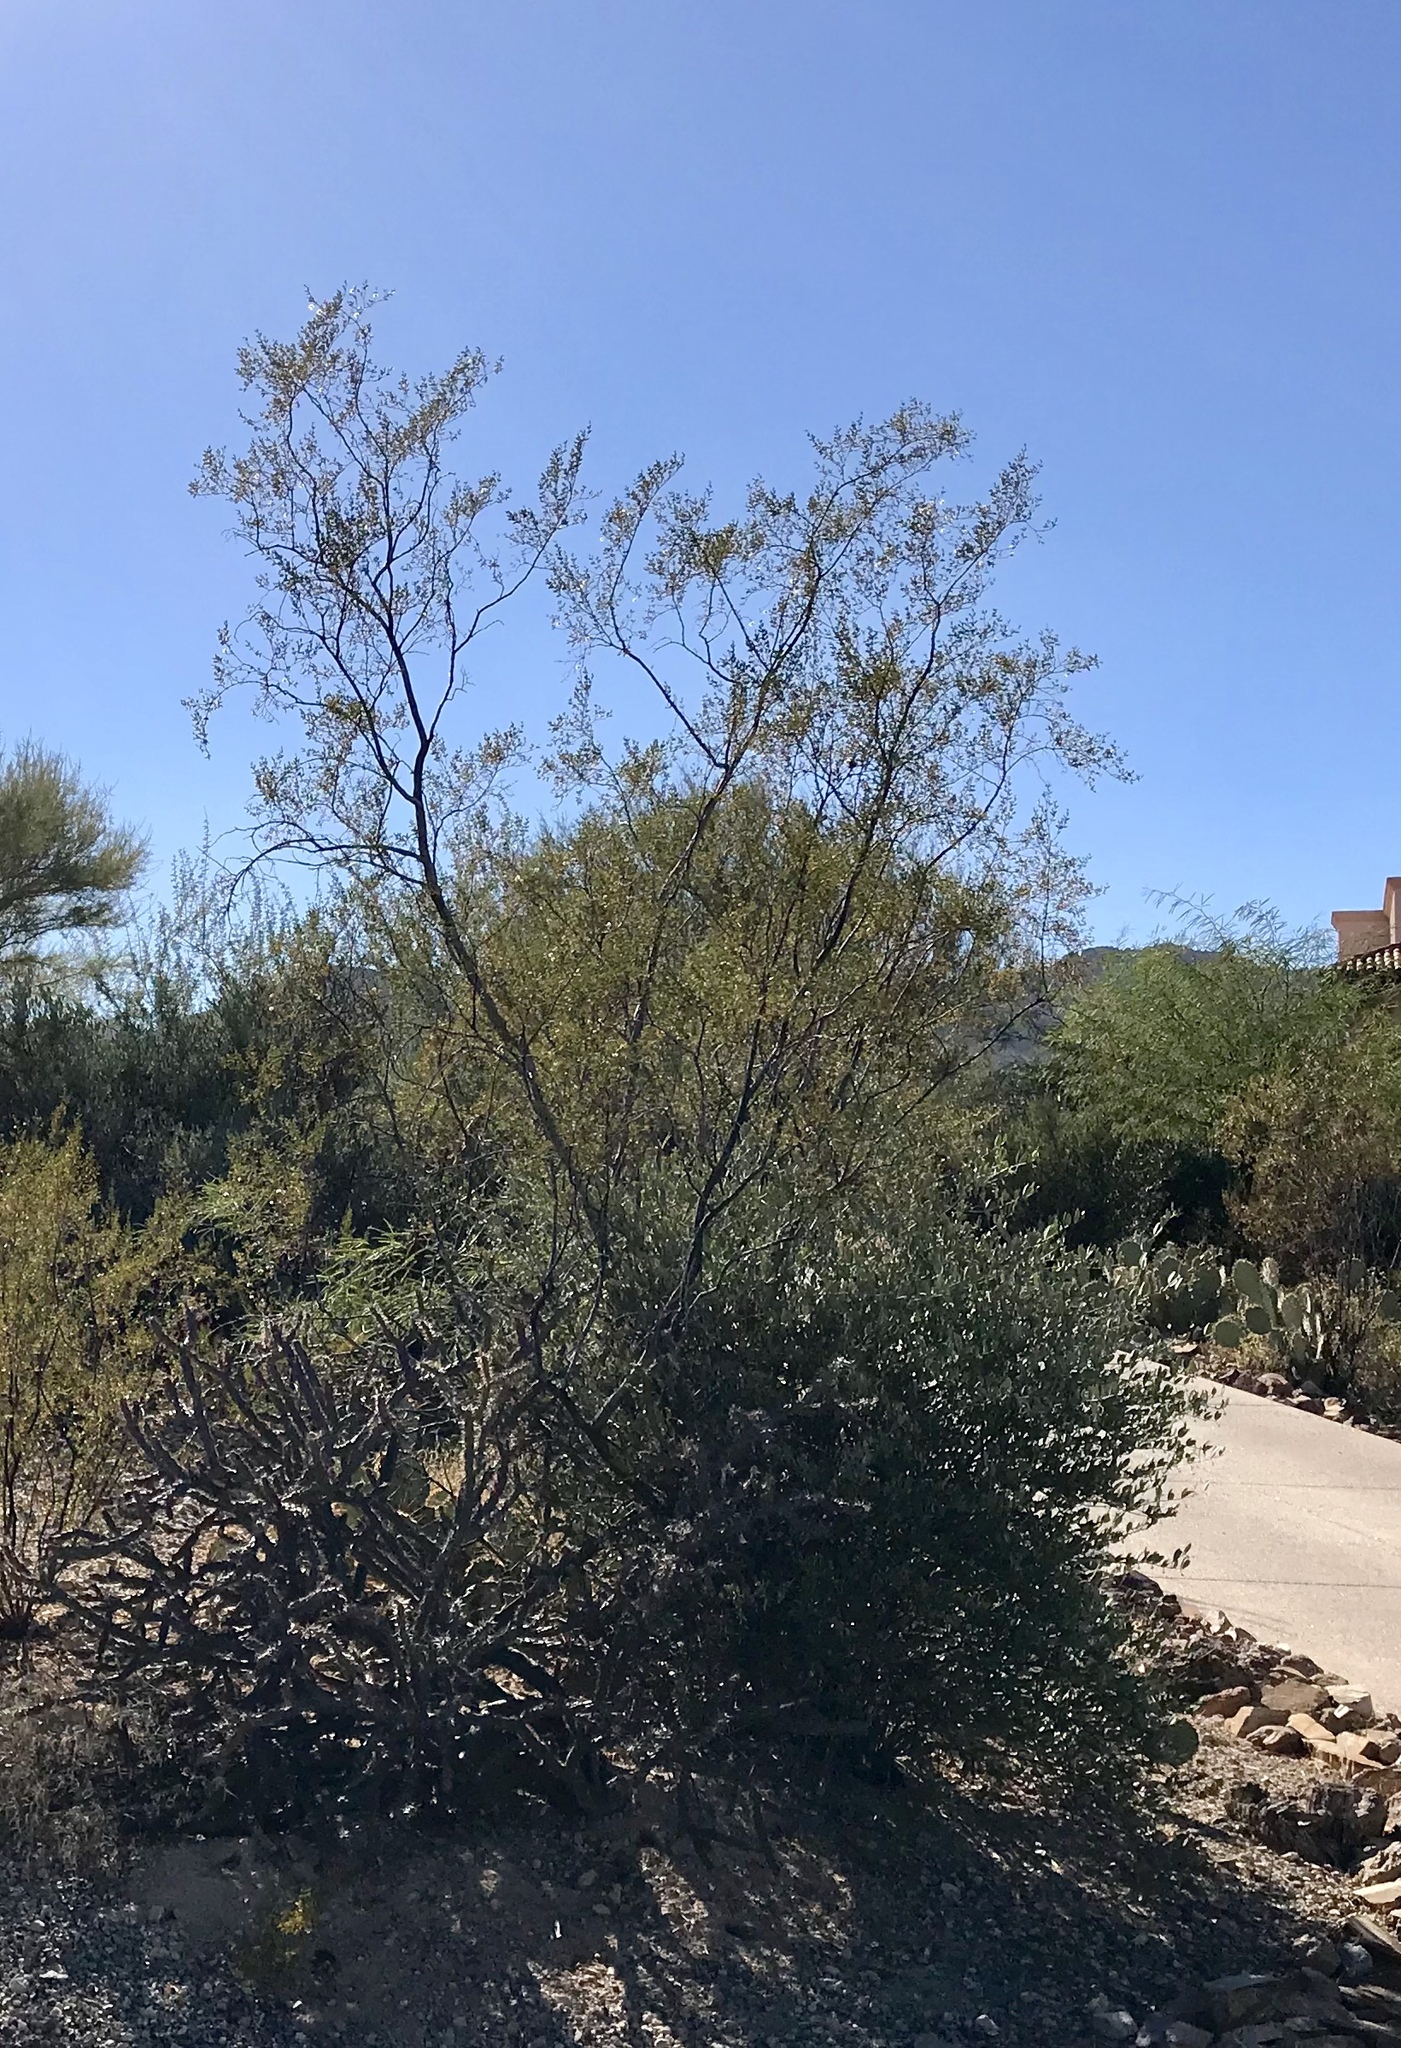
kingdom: Plantae
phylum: Tracheophyta
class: Magnoliopsida
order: Zygophyllales
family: Zygophyllaceae
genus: Larrea
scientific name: Larrea tridentata
